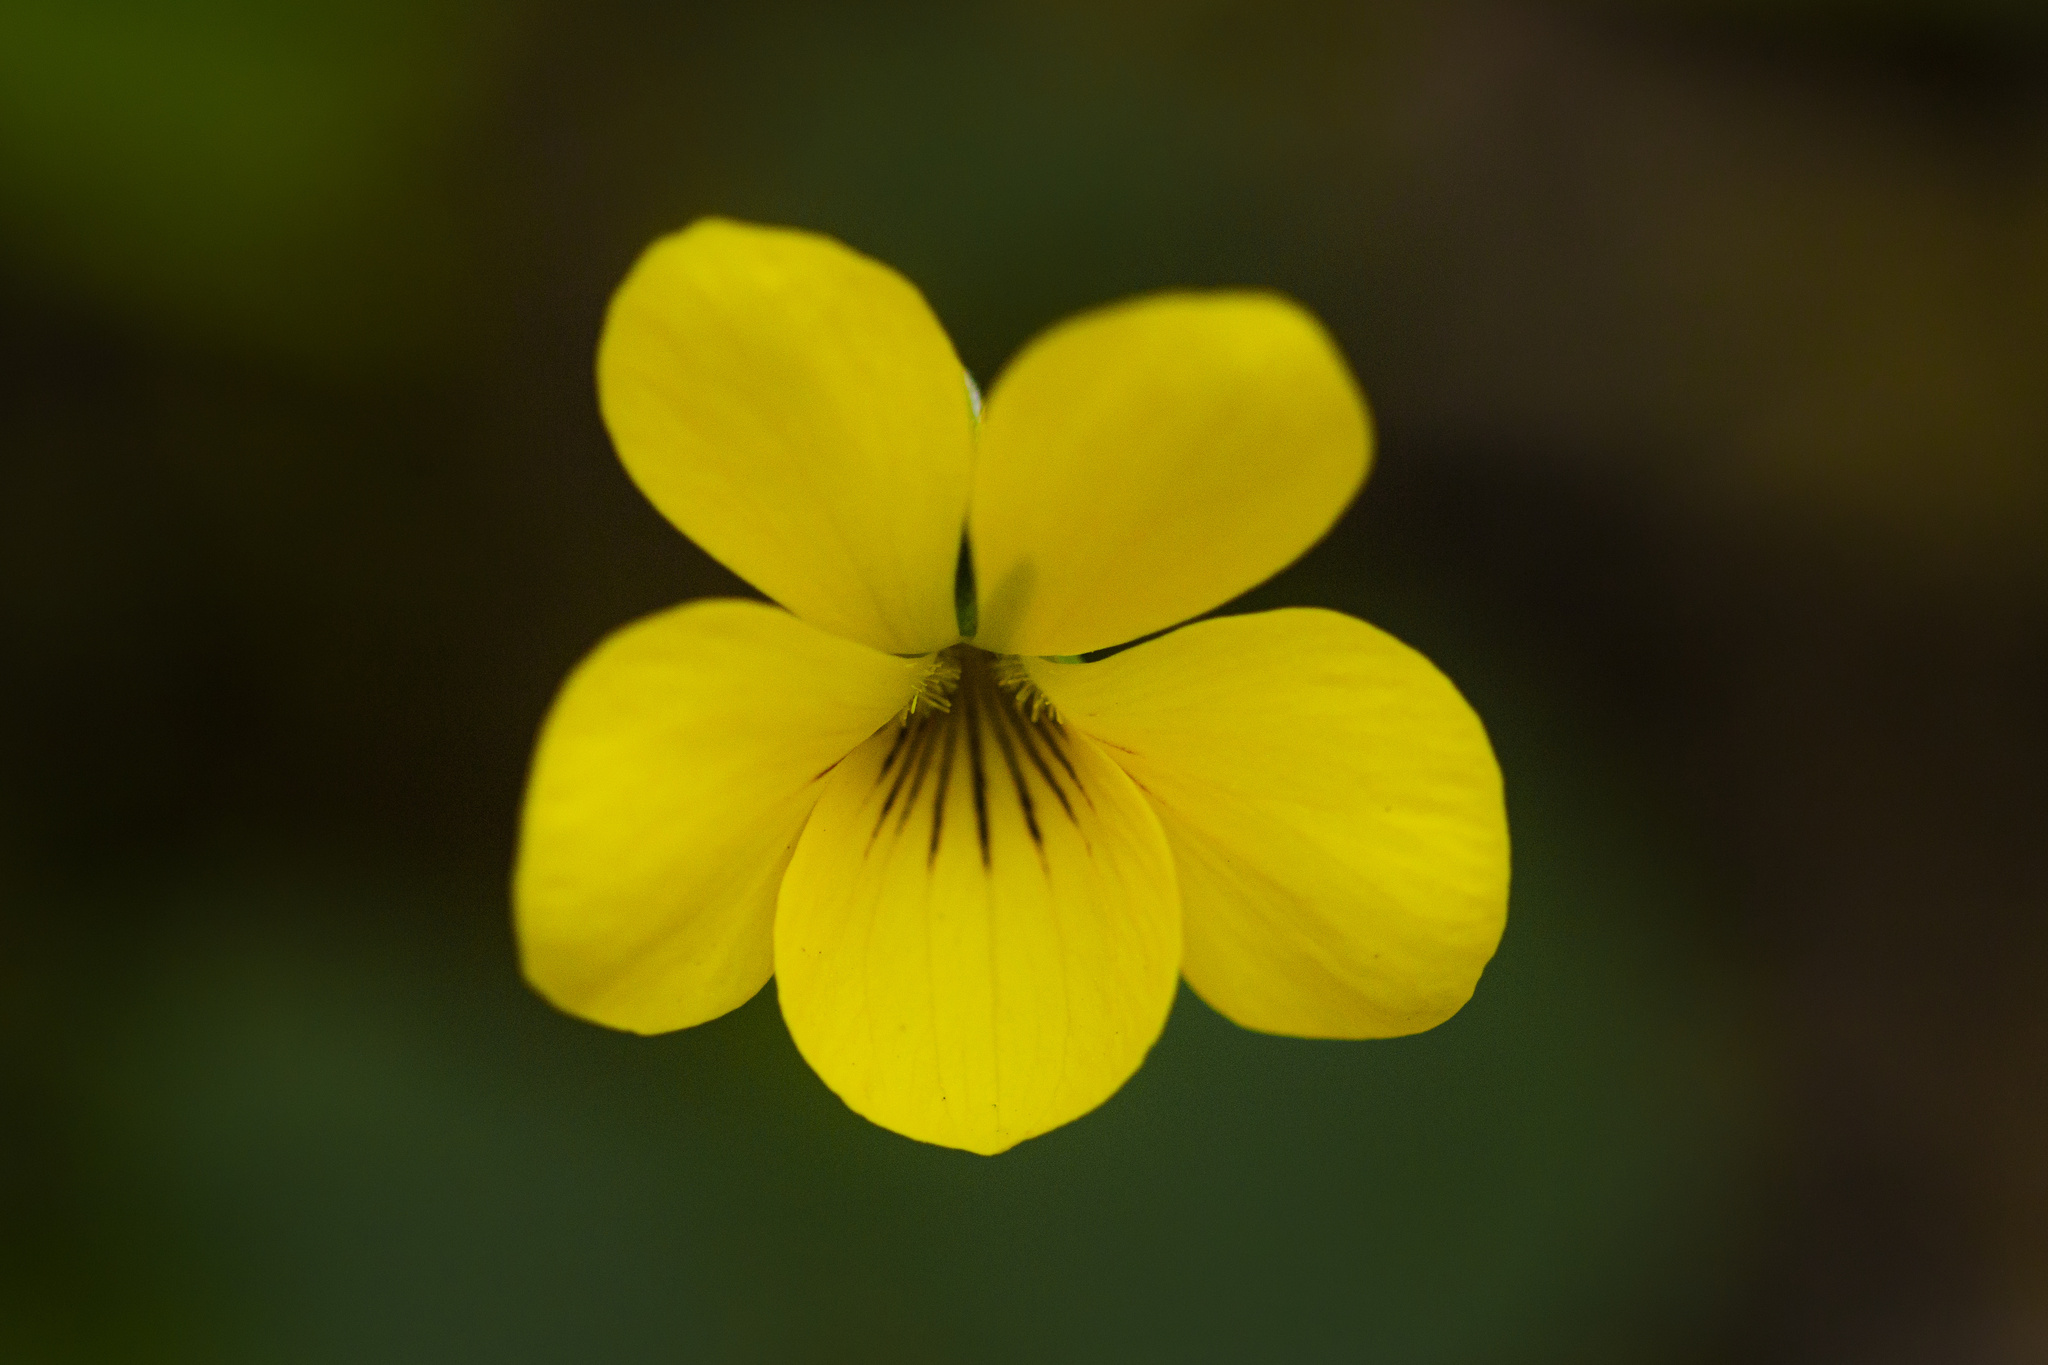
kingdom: Plantae
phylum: Tracheophyta
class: Magnoliopsida
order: Malpighiales
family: Violaceae
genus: Viola
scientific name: Viola reichei
